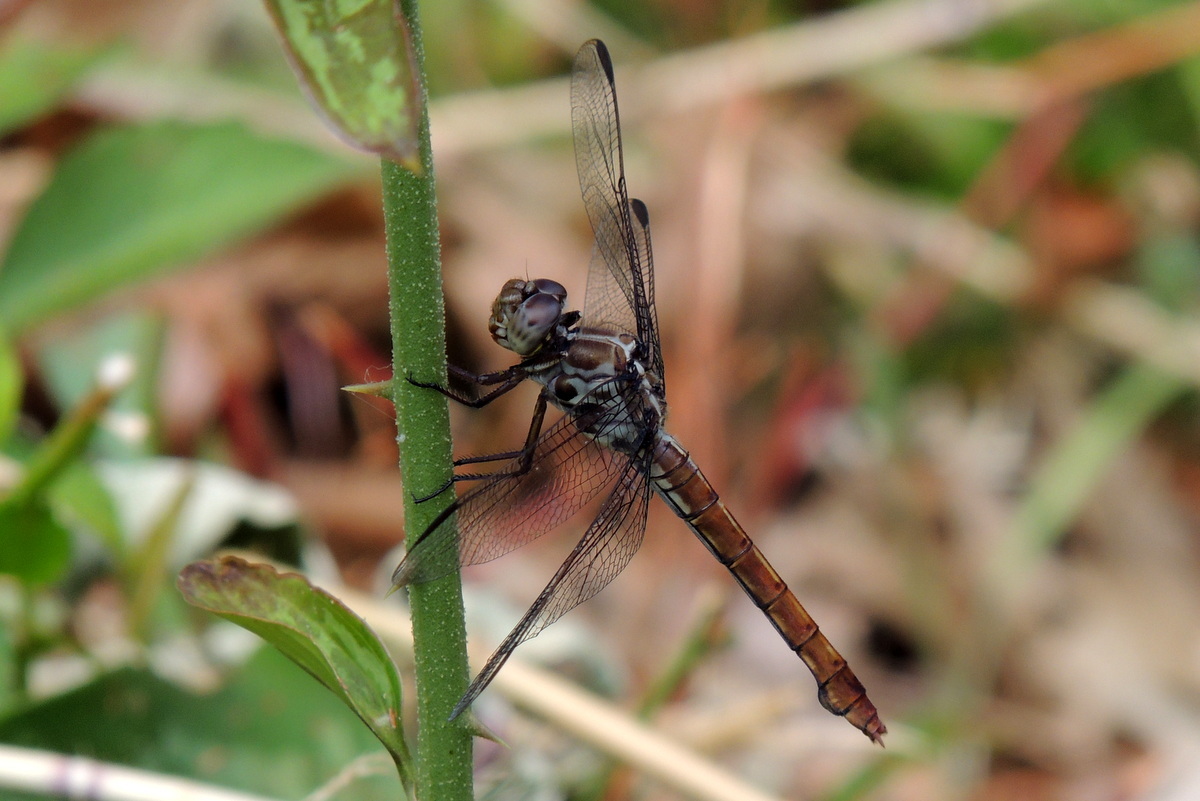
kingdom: Animalia
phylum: Arthropoda
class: Insecta
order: Odonata
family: Libellulidae
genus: Orthemis
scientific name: Orthemis ferruginea
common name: Roseate skimmer
